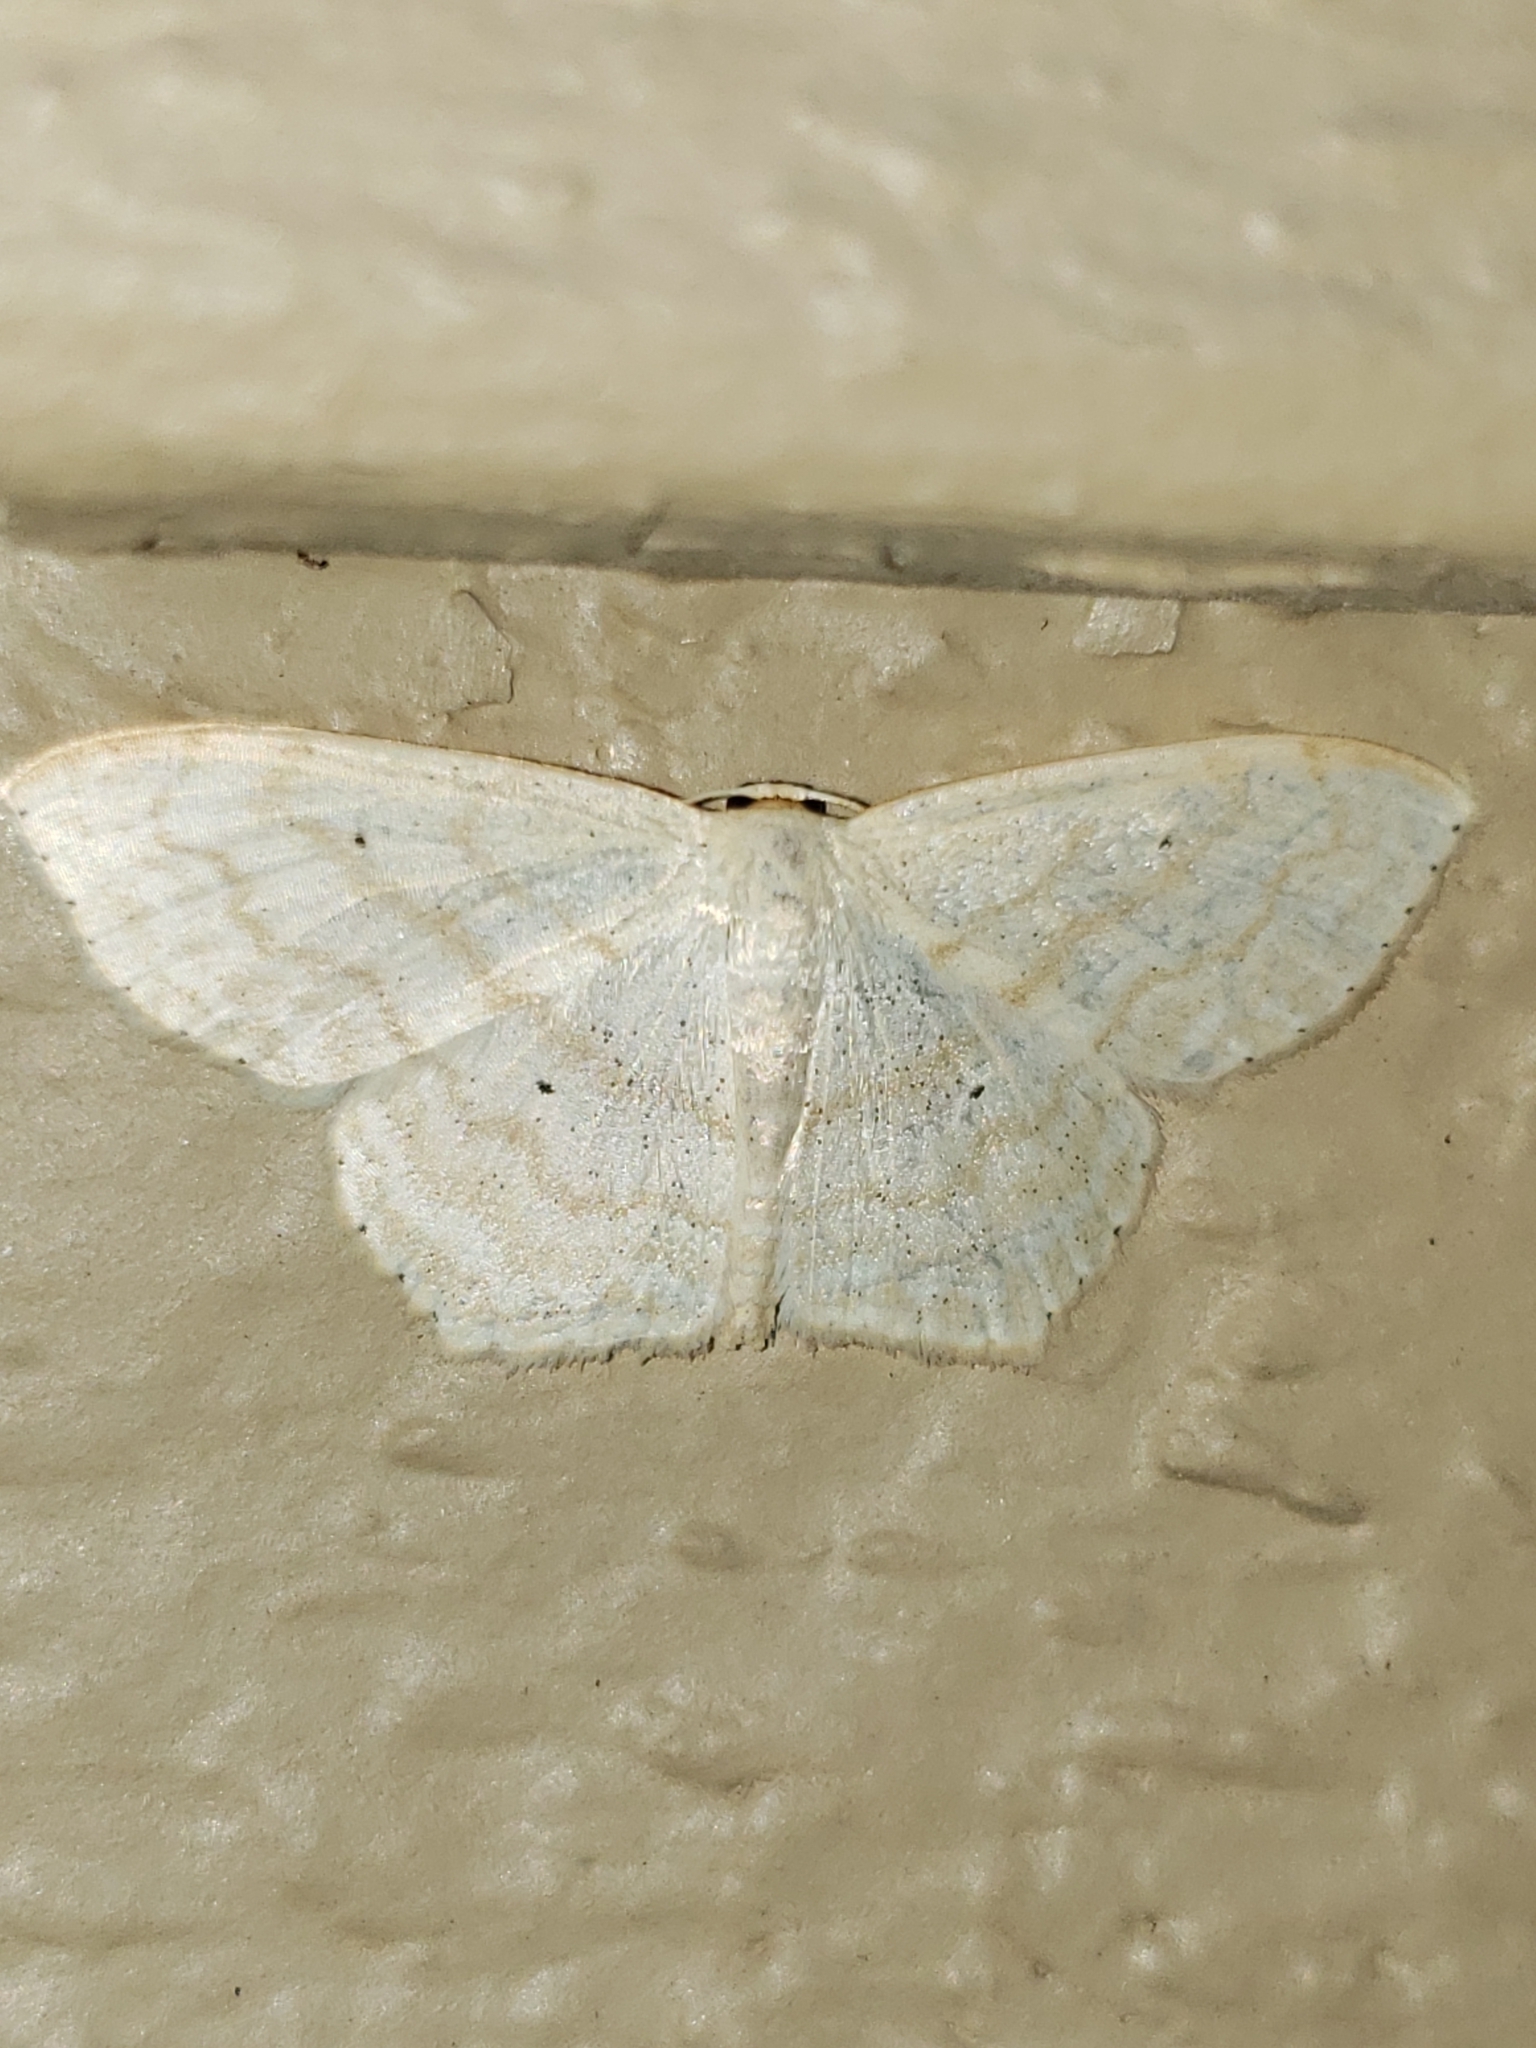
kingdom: Animalia
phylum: Arthropoda
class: Insecta
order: Lepidoptera
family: Geometridae
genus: Scopula
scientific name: Scopula limboundata
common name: Large lace border
